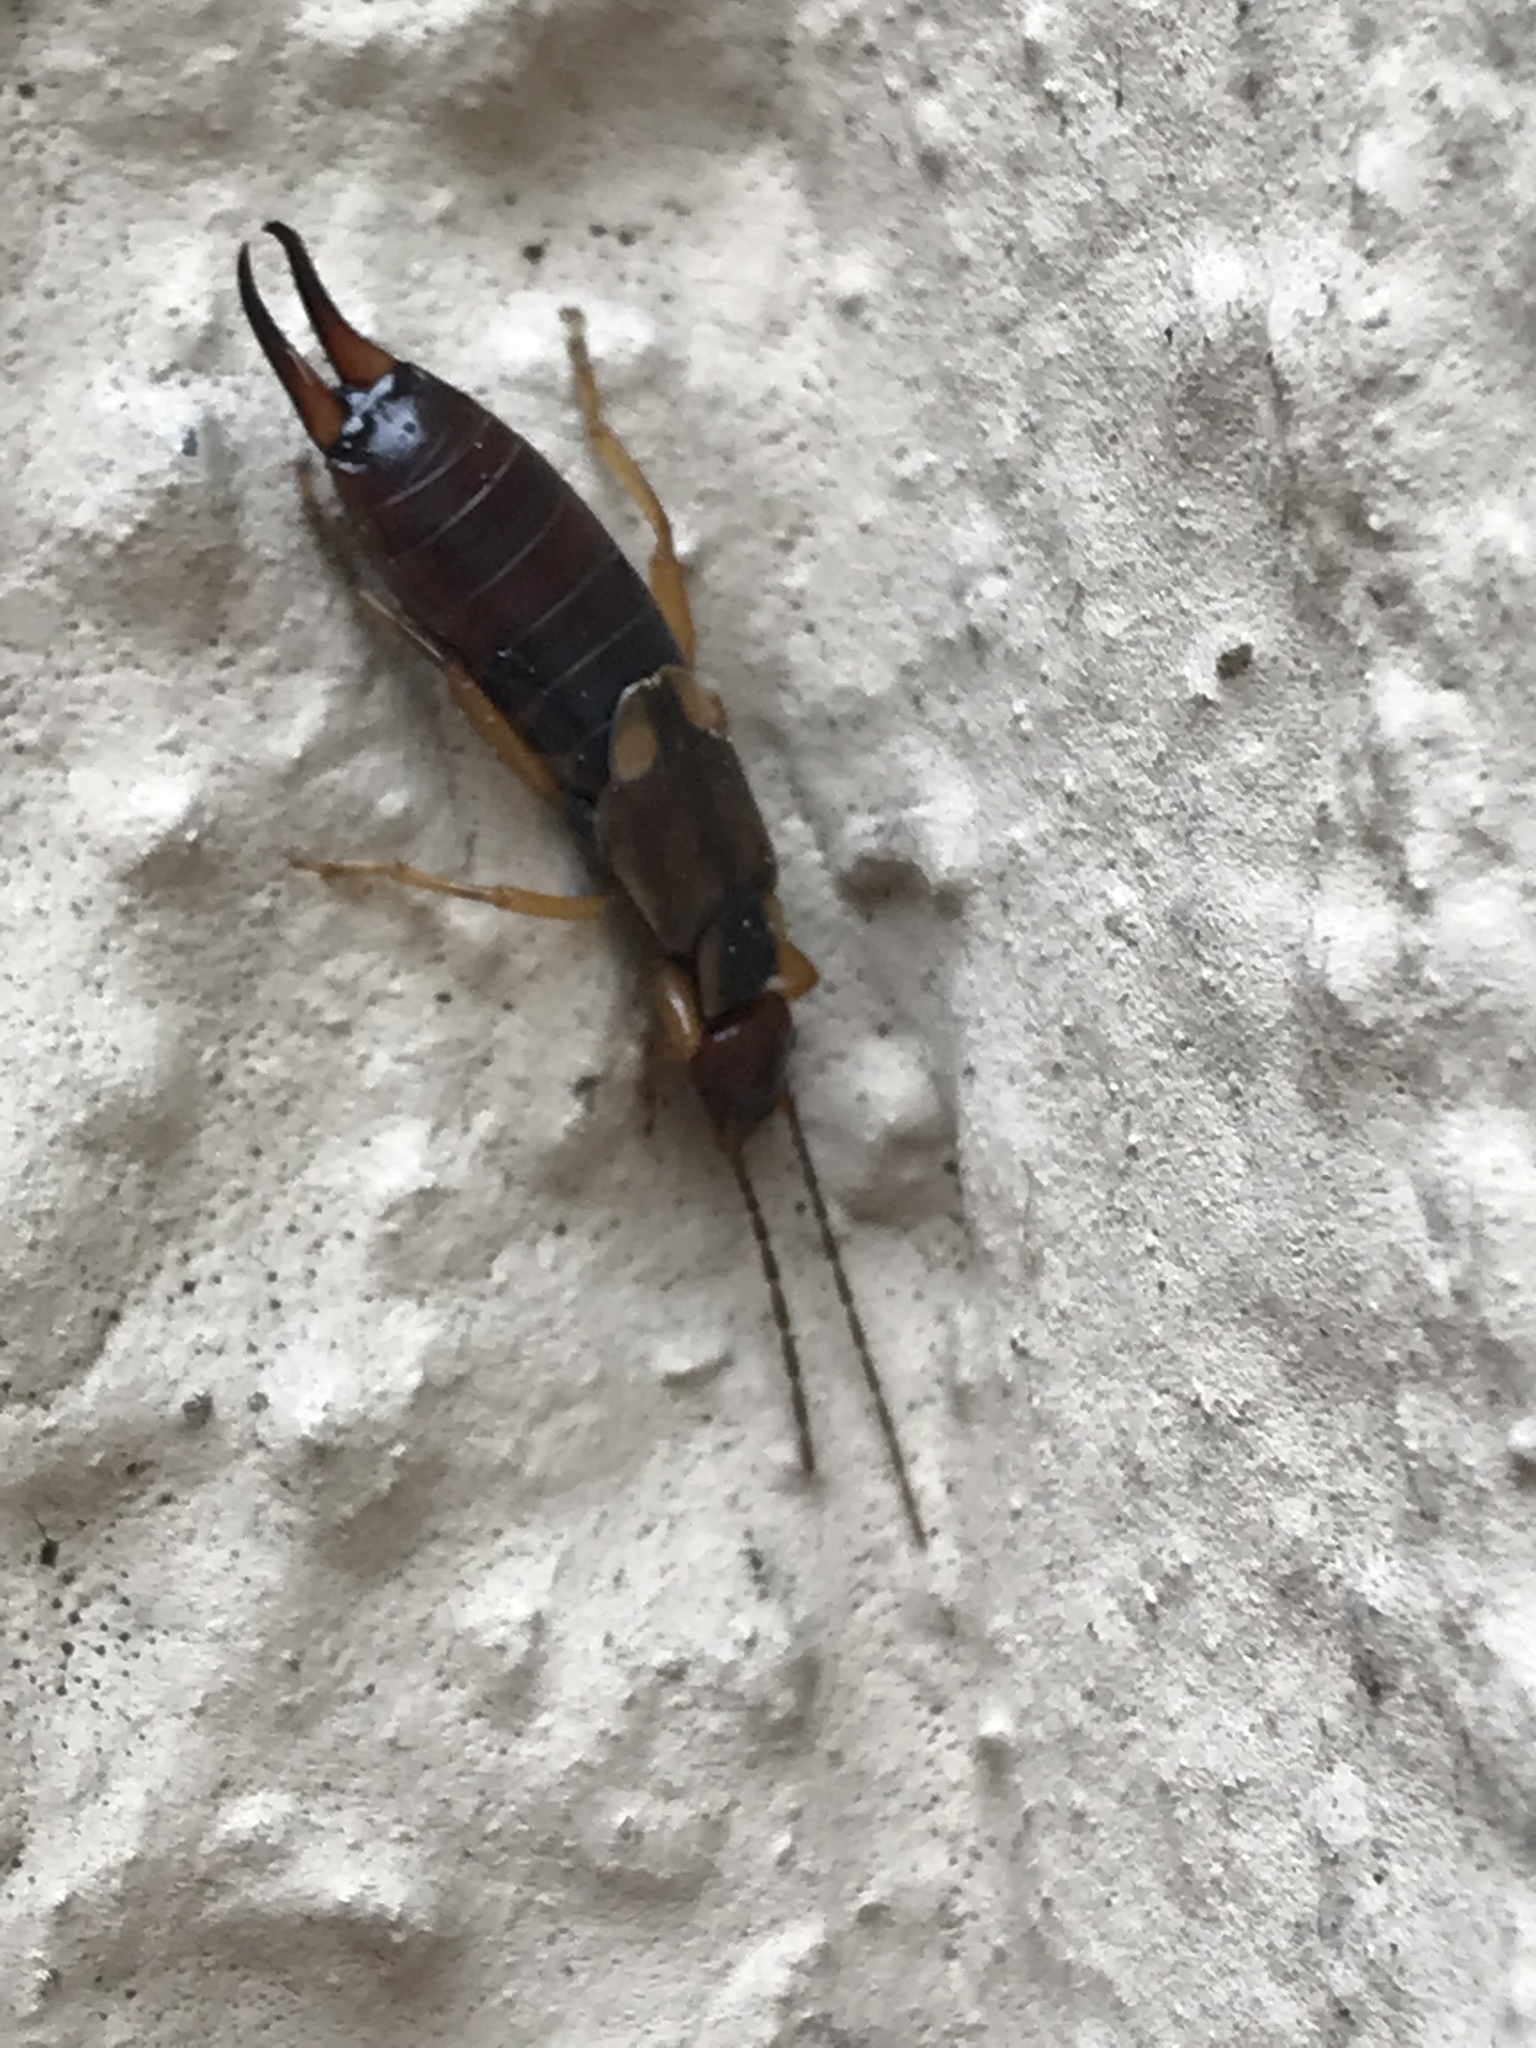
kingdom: Animalia
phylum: Arthropoda
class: Insecta
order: Dermaptera
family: Forficulidae
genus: Forficula
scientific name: Forficula
